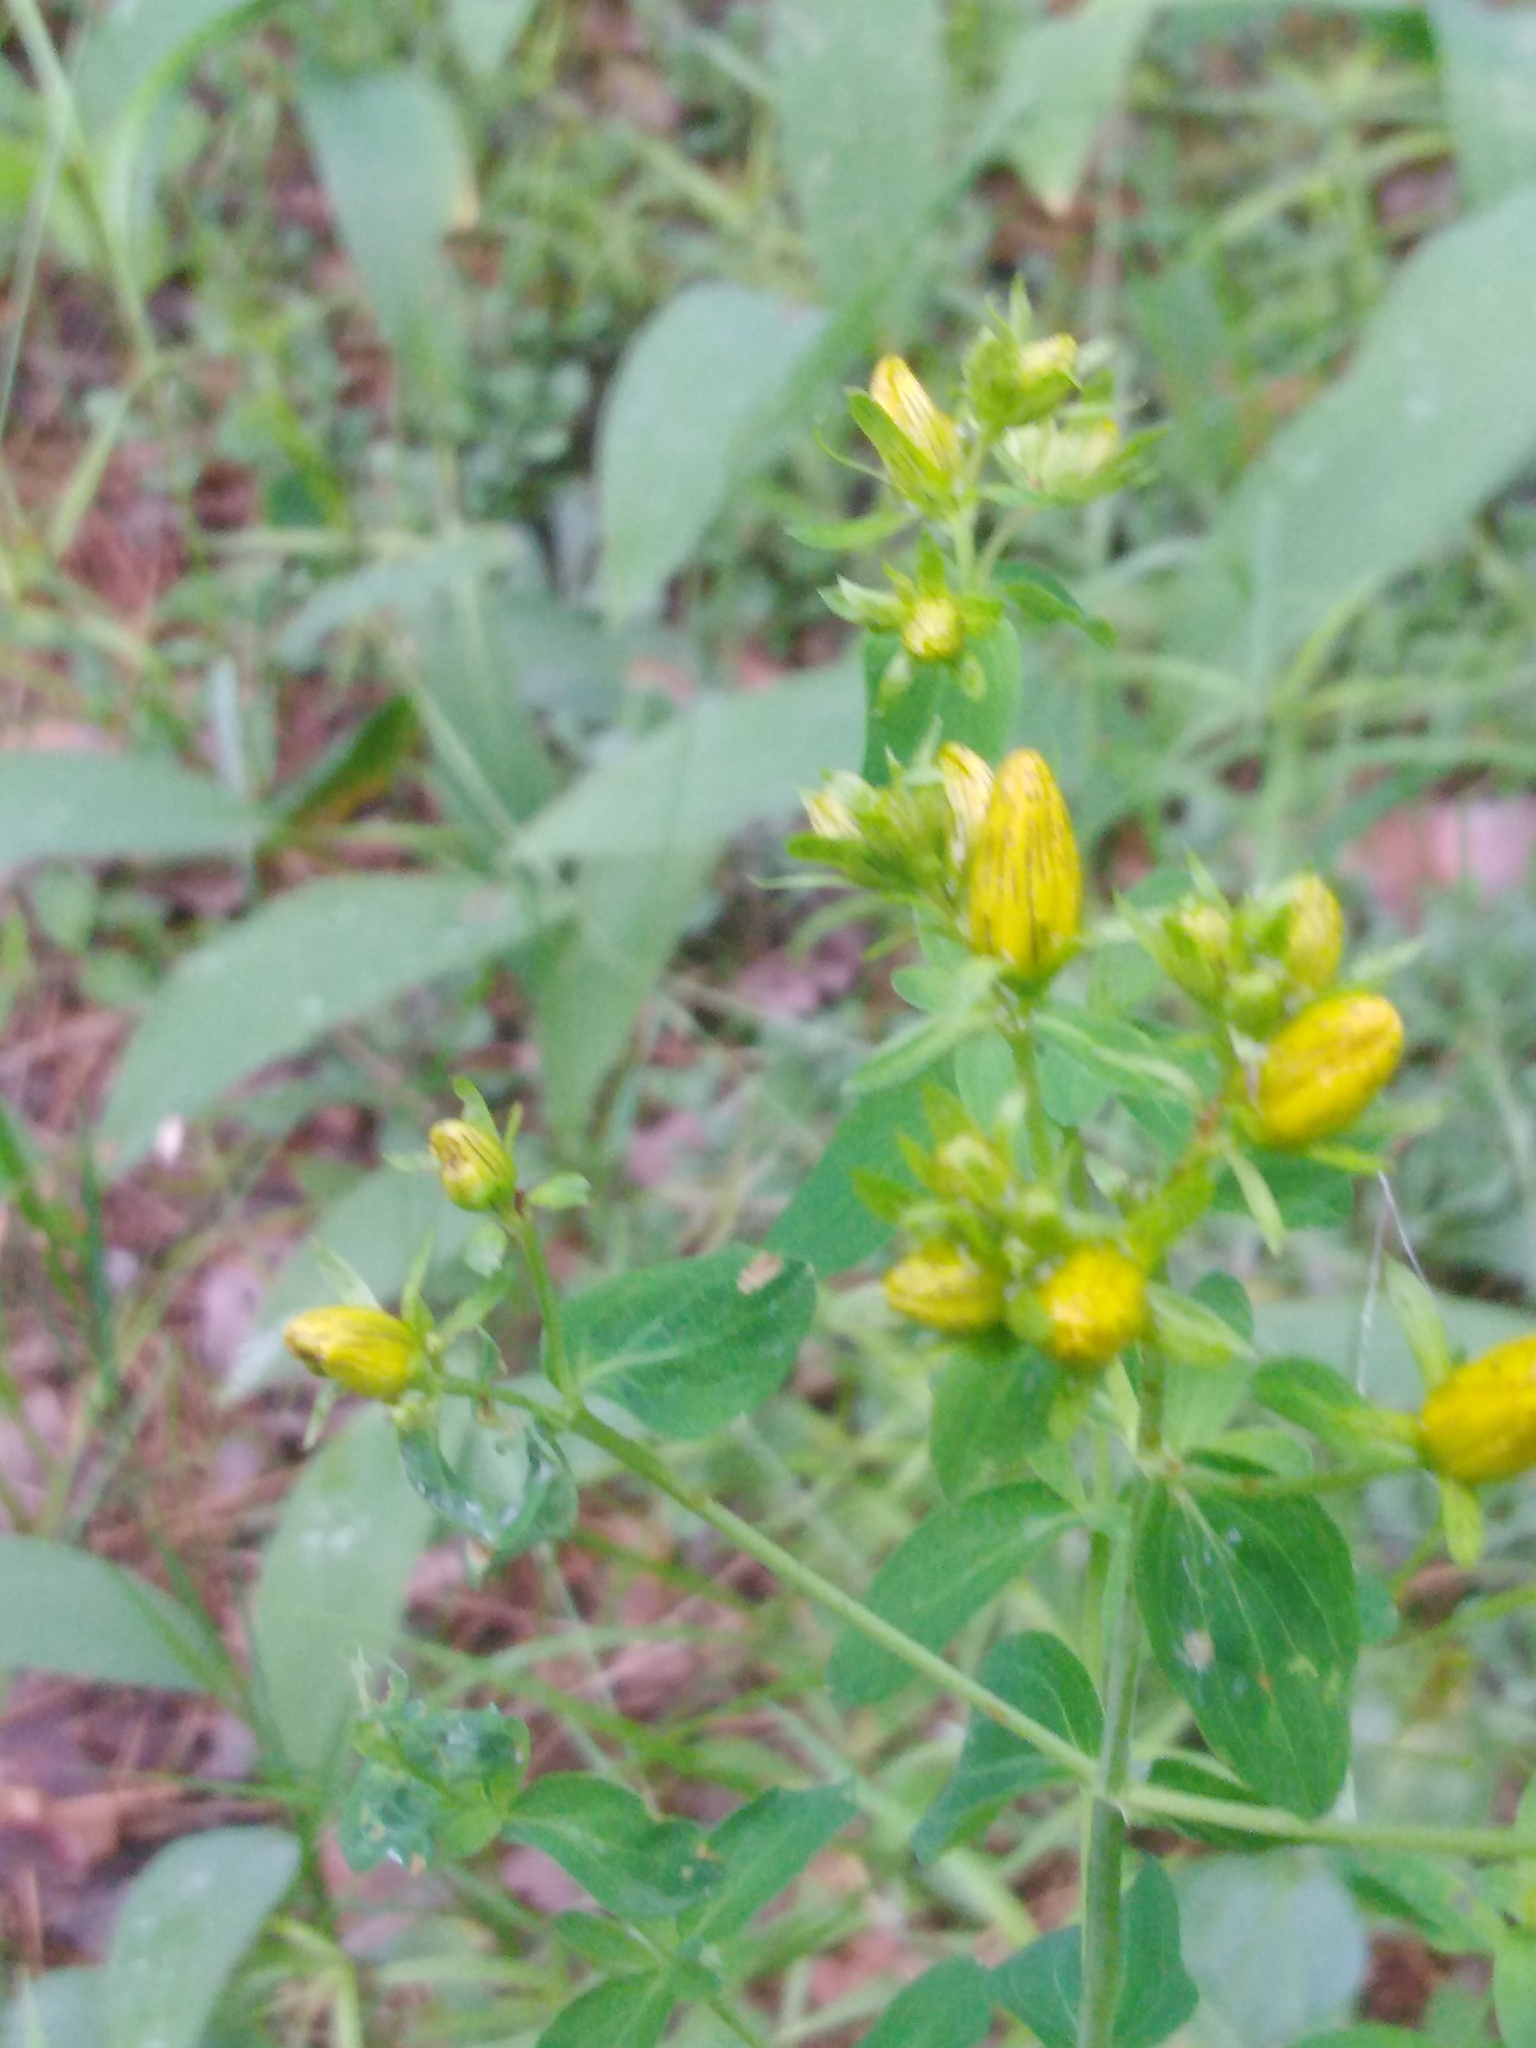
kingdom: Plantae
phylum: Tracheophyta
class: Magnoliopsida
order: Malpighiales
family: Hypericaceae
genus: Hypericum
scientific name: Hypericum perforatum
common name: Common st. johnswort
